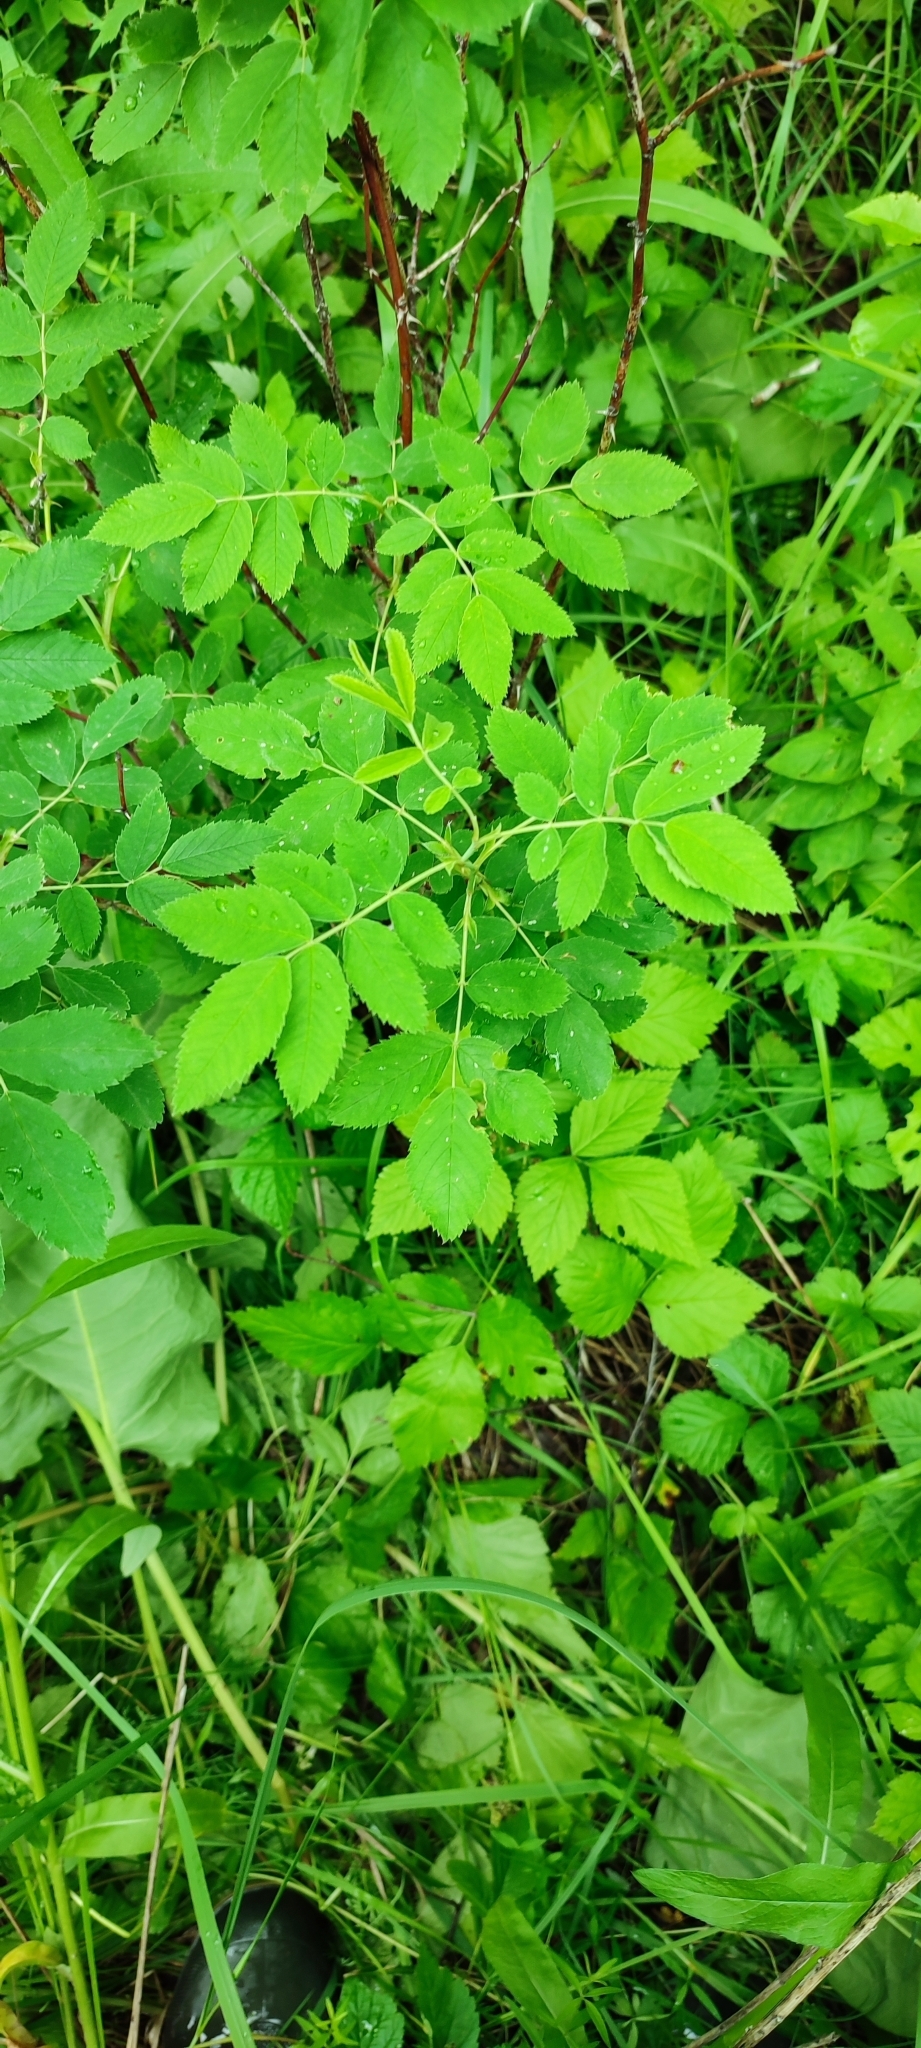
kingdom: Plantae
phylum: Tracheophyta
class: Magnoliopsida
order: Rosales
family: Rosaceae
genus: Rosa
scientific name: Rosa majalis
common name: Cinnamon rose
